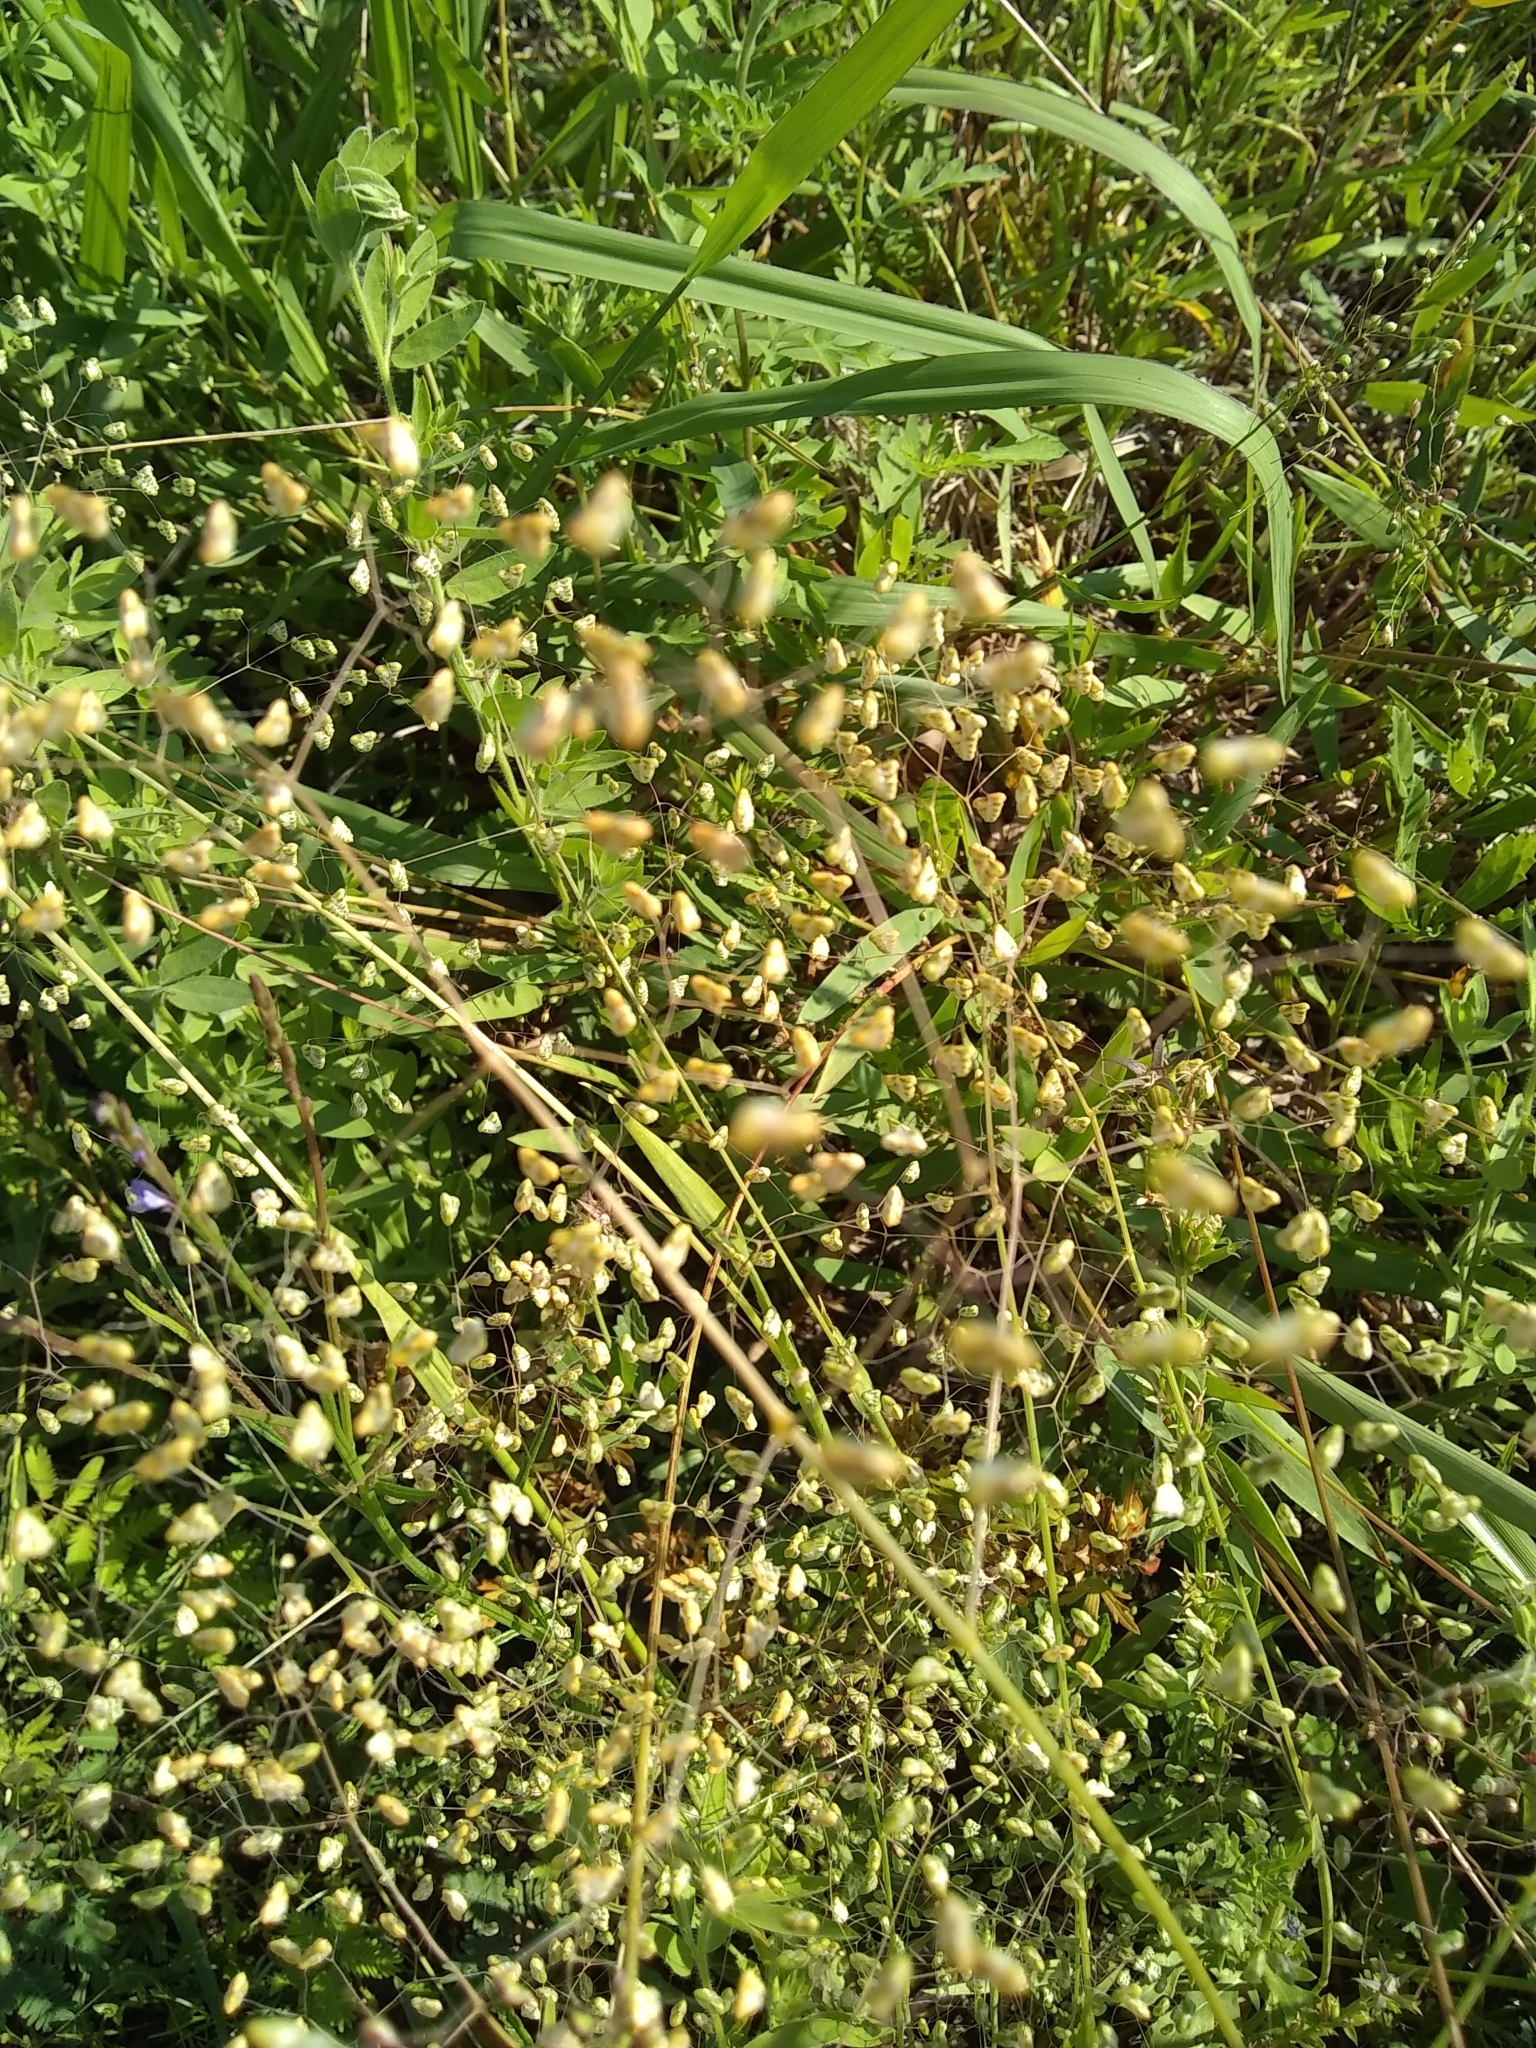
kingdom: Plantae
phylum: Tracheophyta
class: Liliopsida
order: Poales
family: Poaceae
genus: Briza
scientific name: Briza minor
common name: Lesser quaking-grass
